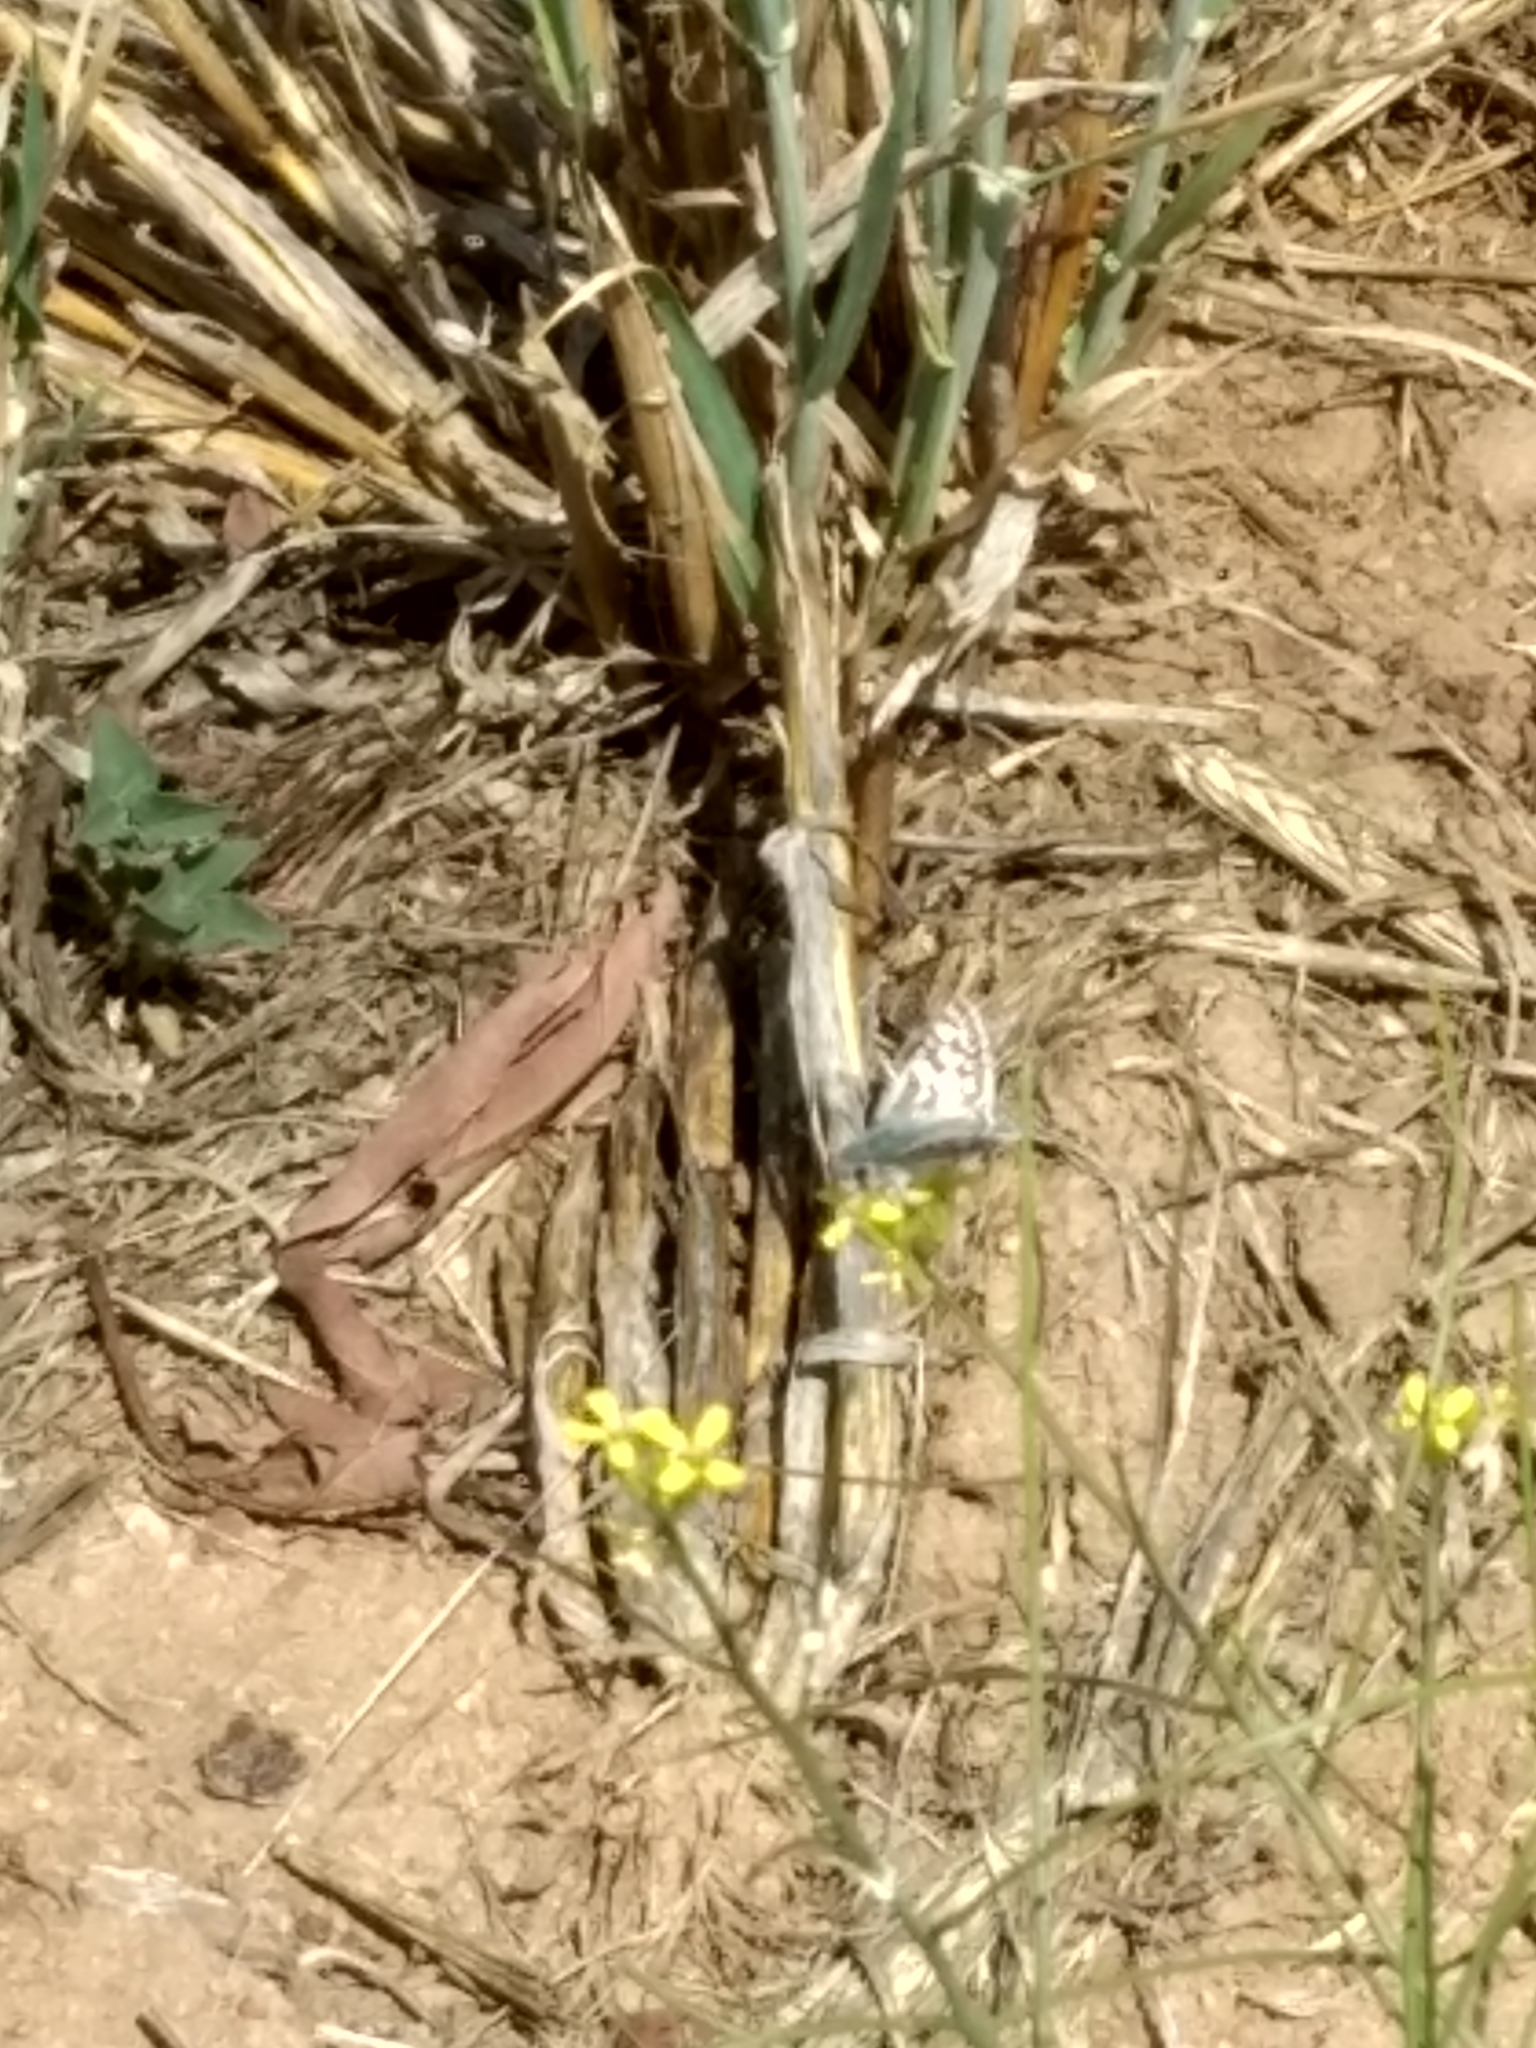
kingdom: Animalia
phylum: Arthropoda
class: Insecta
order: Lepidoptera
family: Hesperiidae
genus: Burnsius
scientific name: Burnsius albezens
